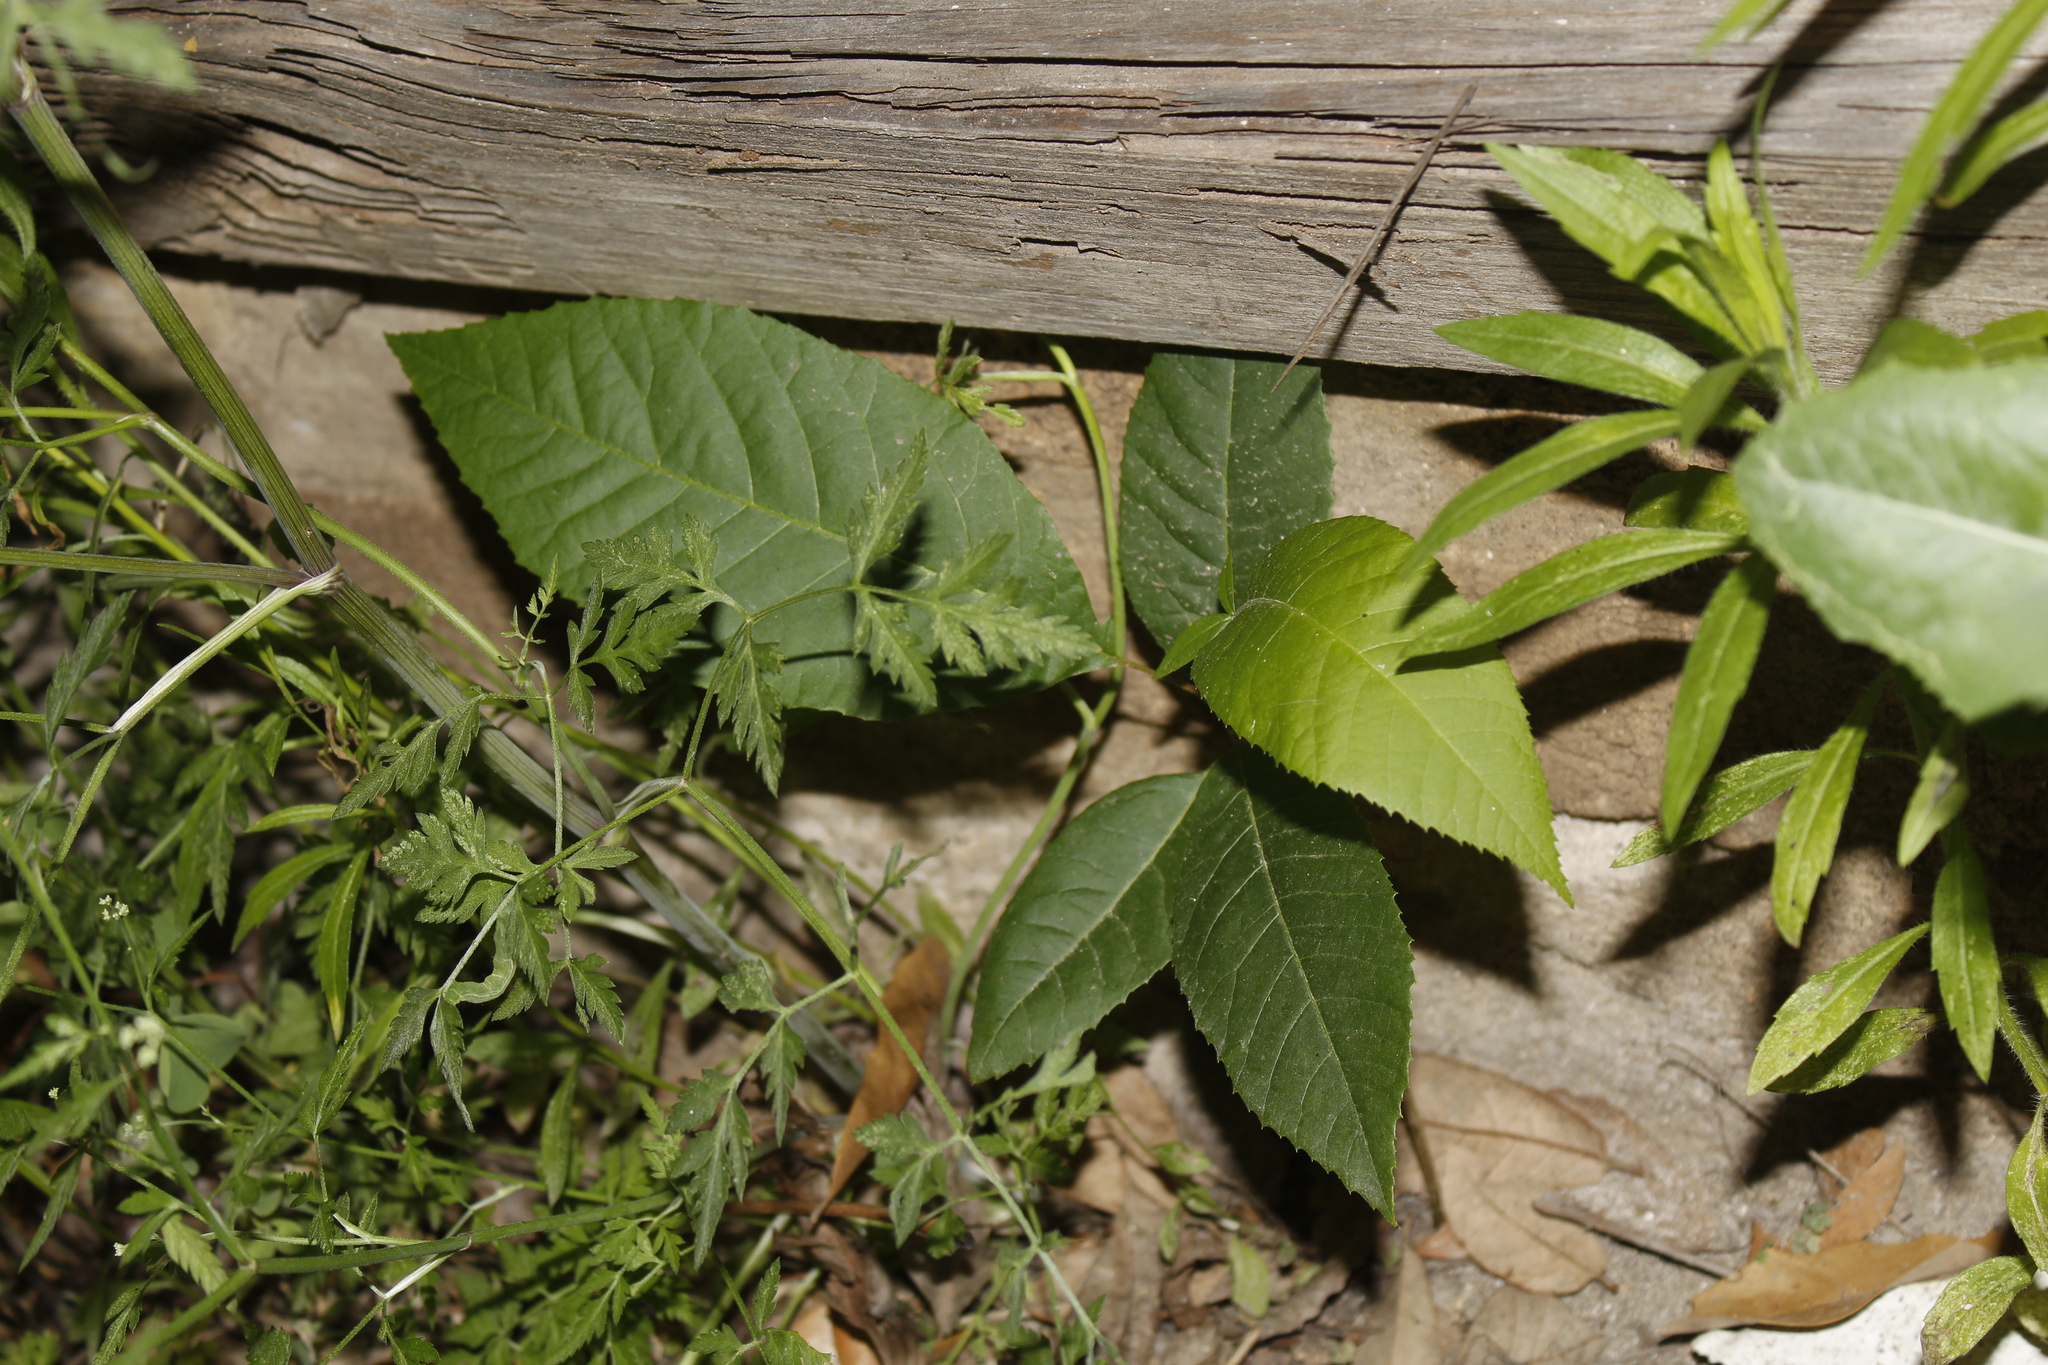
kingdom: Plantae
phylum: Tracheophyta
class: Magnoliopsida
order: Fagales
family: Juglandaceae
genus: Carya
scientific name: Carya illinoinensis
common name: Pecan
